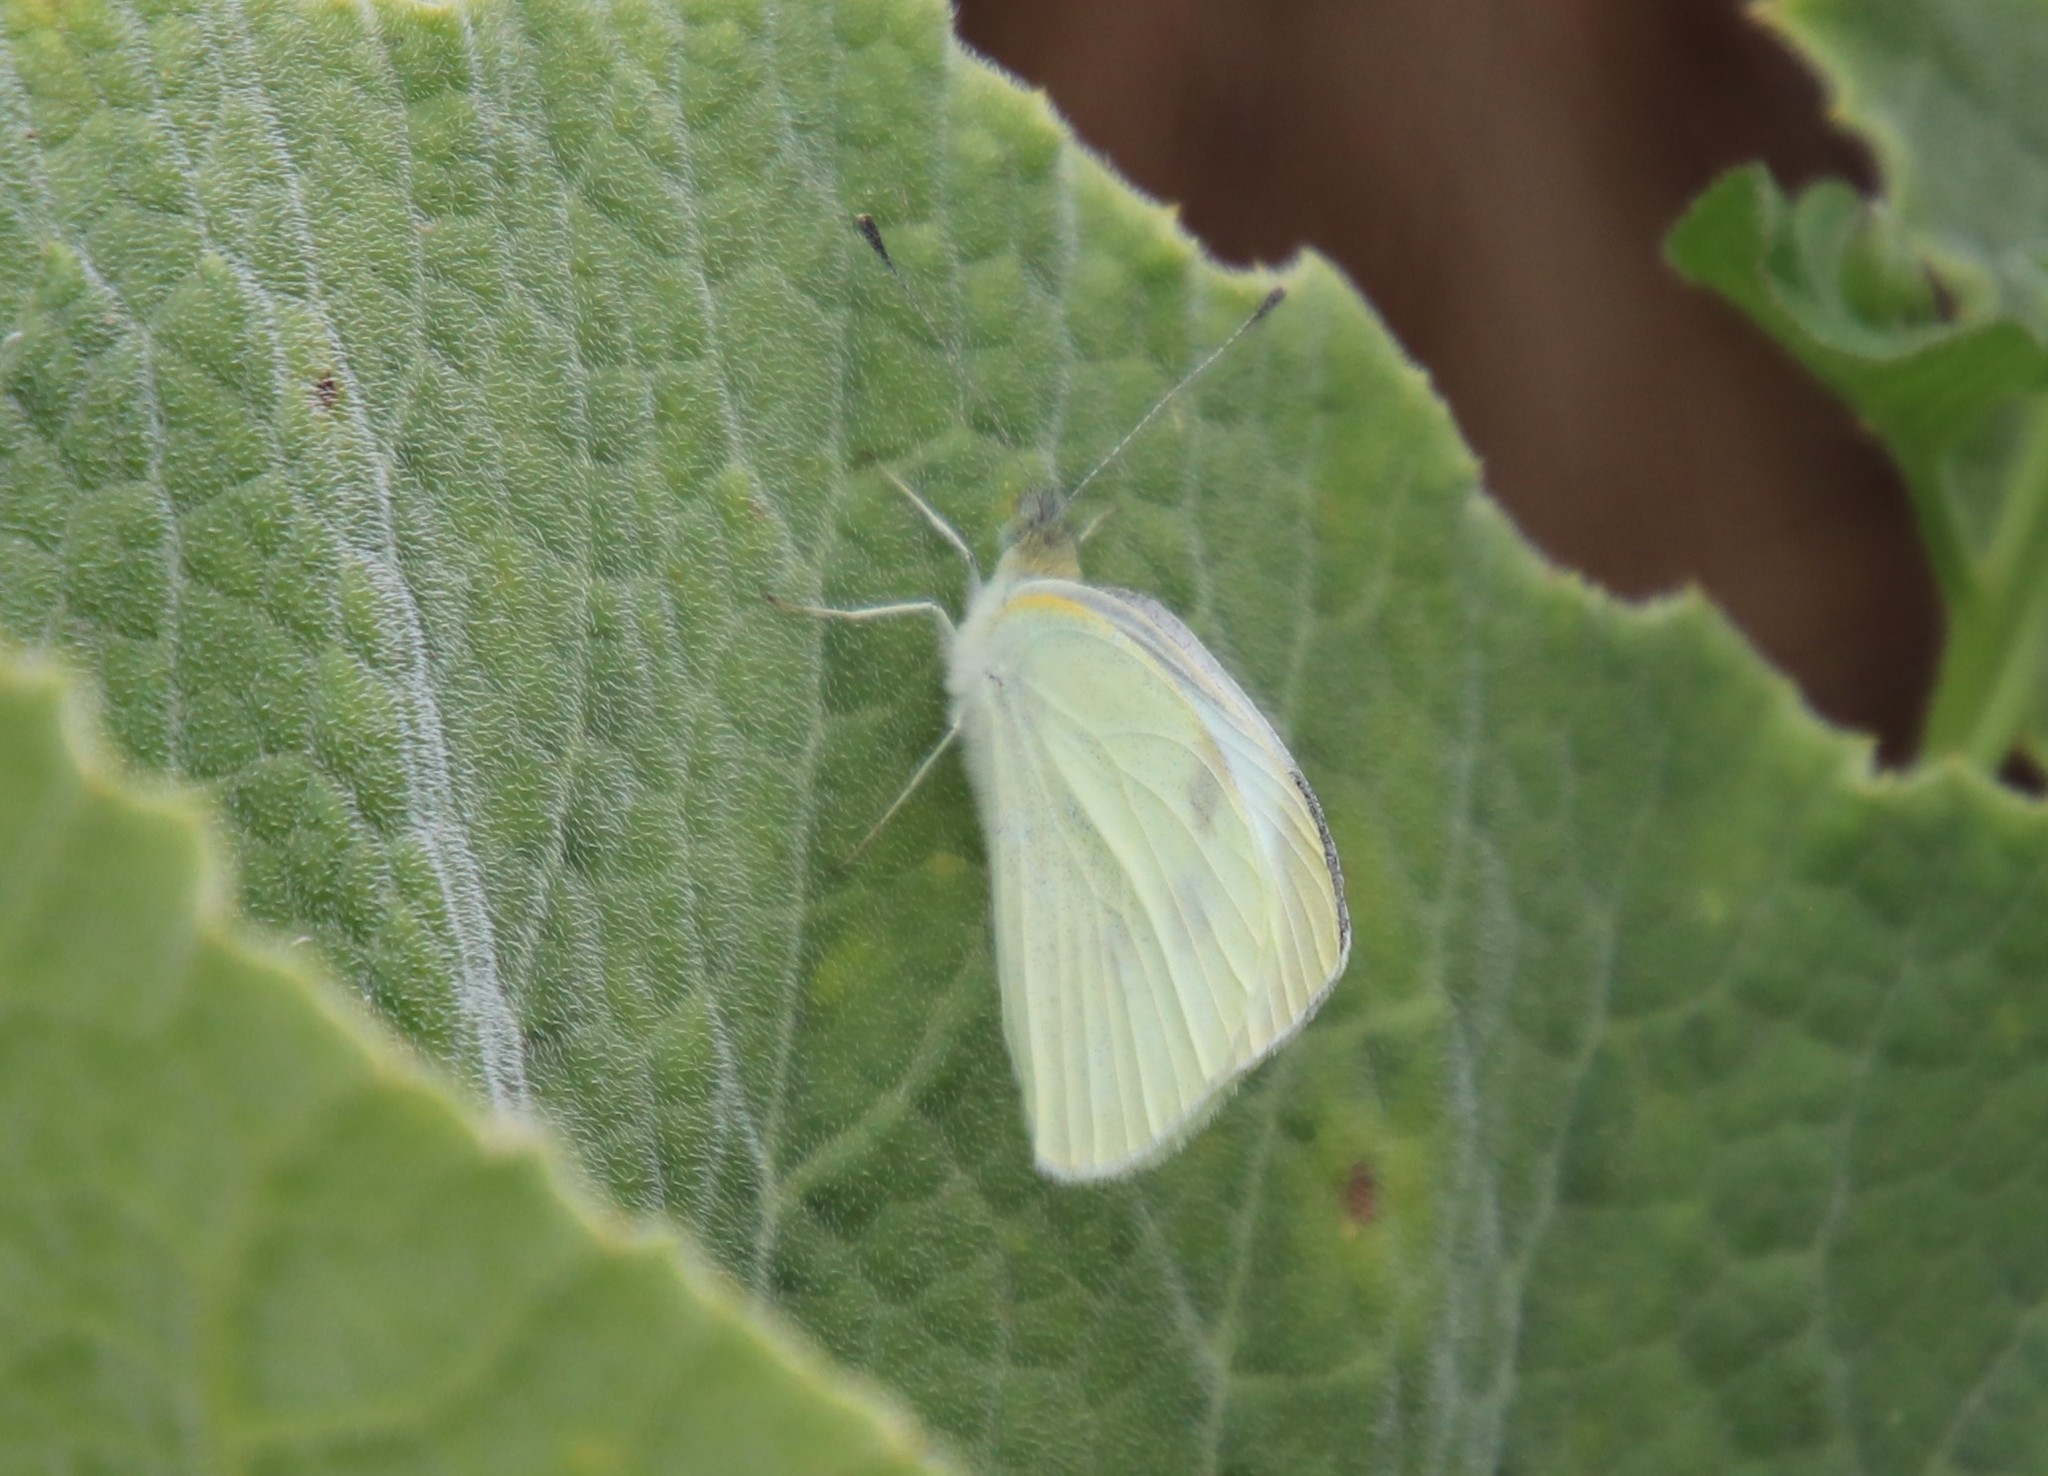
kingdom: Animalia
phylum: Arthropoda
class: Insecta
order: Lepidoptera
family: Pieridae
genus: Pieris
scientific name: Pieris rapae
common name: Small white
